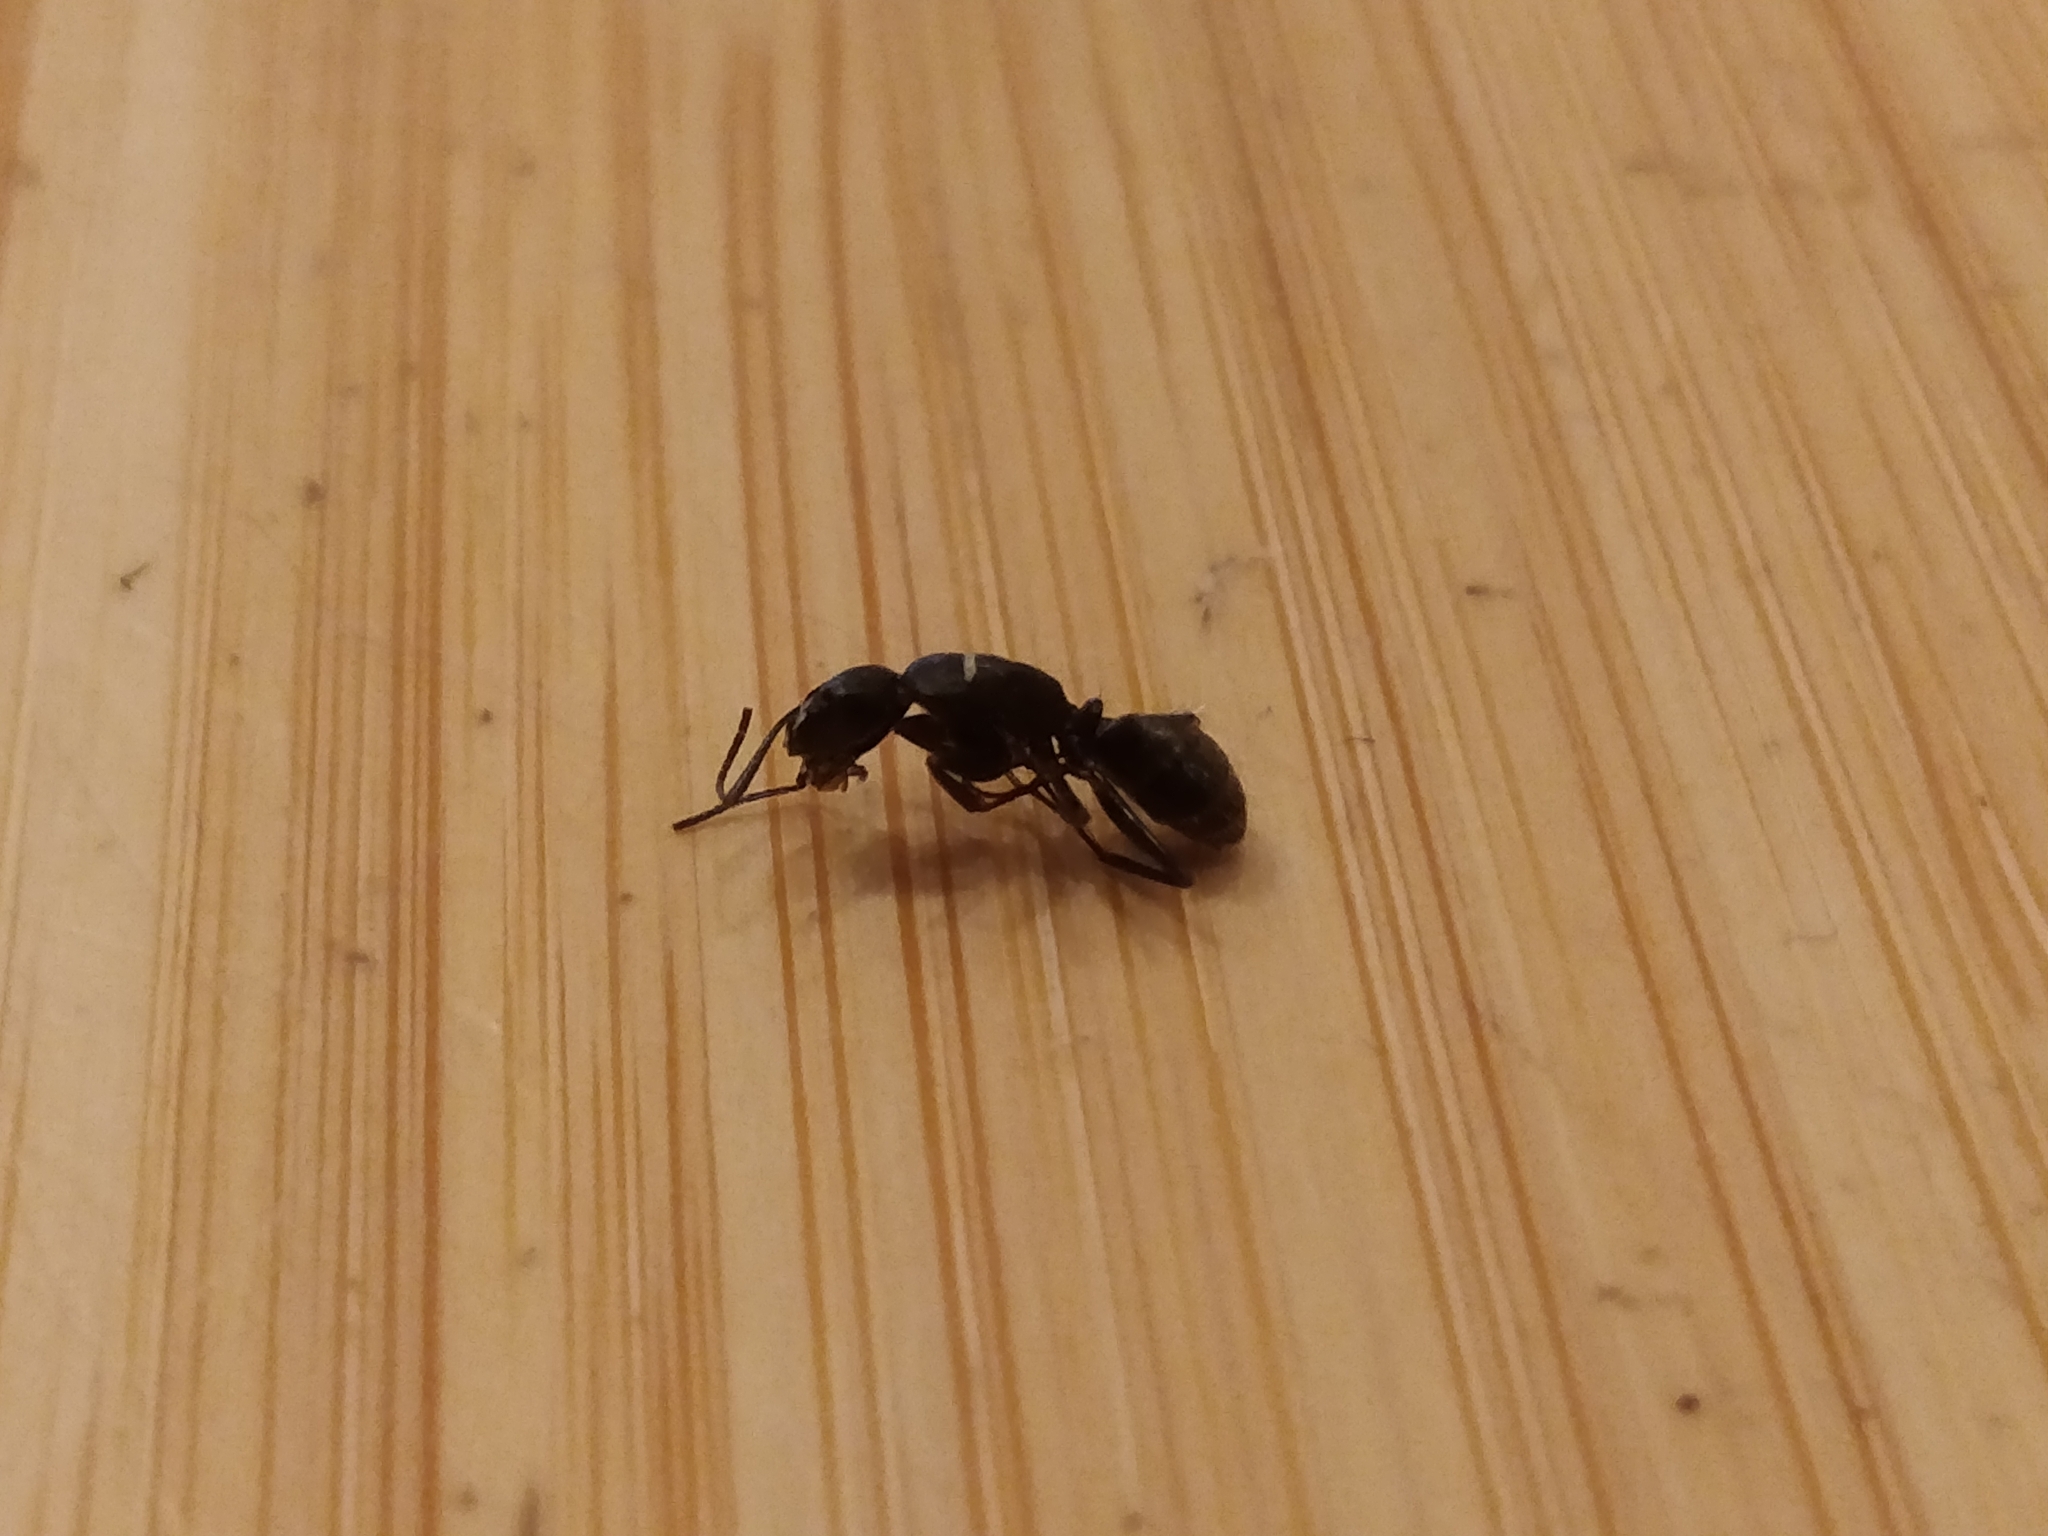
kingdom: Animalia
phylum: Arthropoda
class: Insecta
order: Hymenoptera
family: Formicidae
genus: Camponotus
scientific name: Camponotus pennsylvanicus
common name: Black carpenter ant
